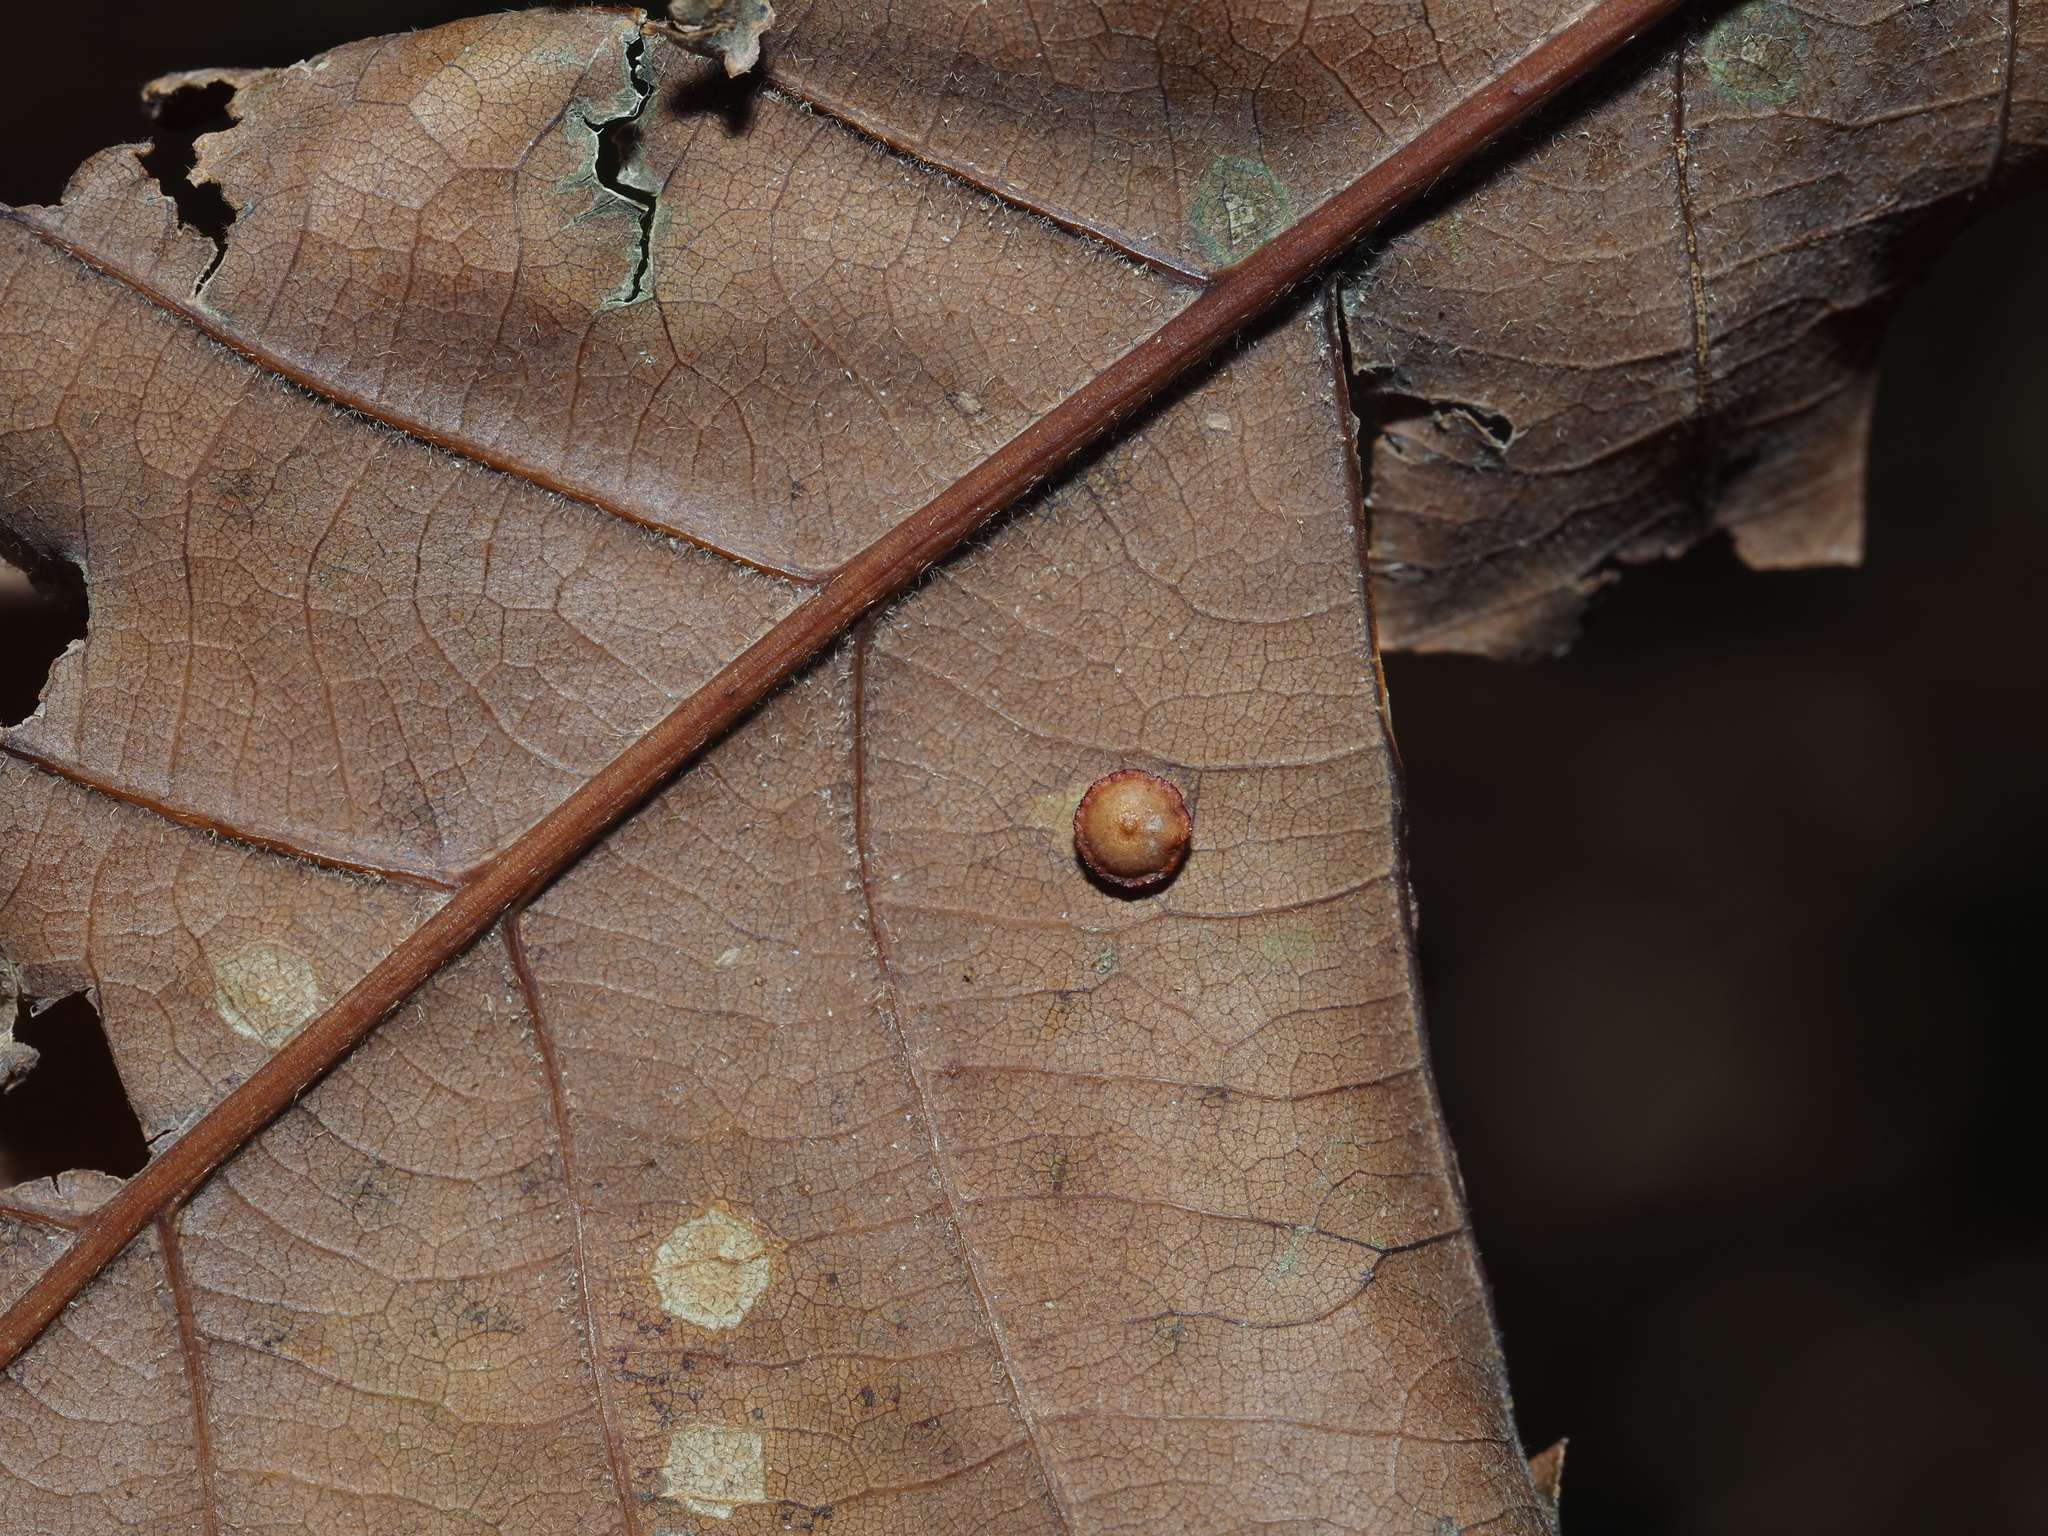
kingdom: Animalia
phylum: Arthropoda
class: Insecta
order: Hymenoptera
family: Cynipidae
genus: Neuroterus
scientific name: Neuroterus
